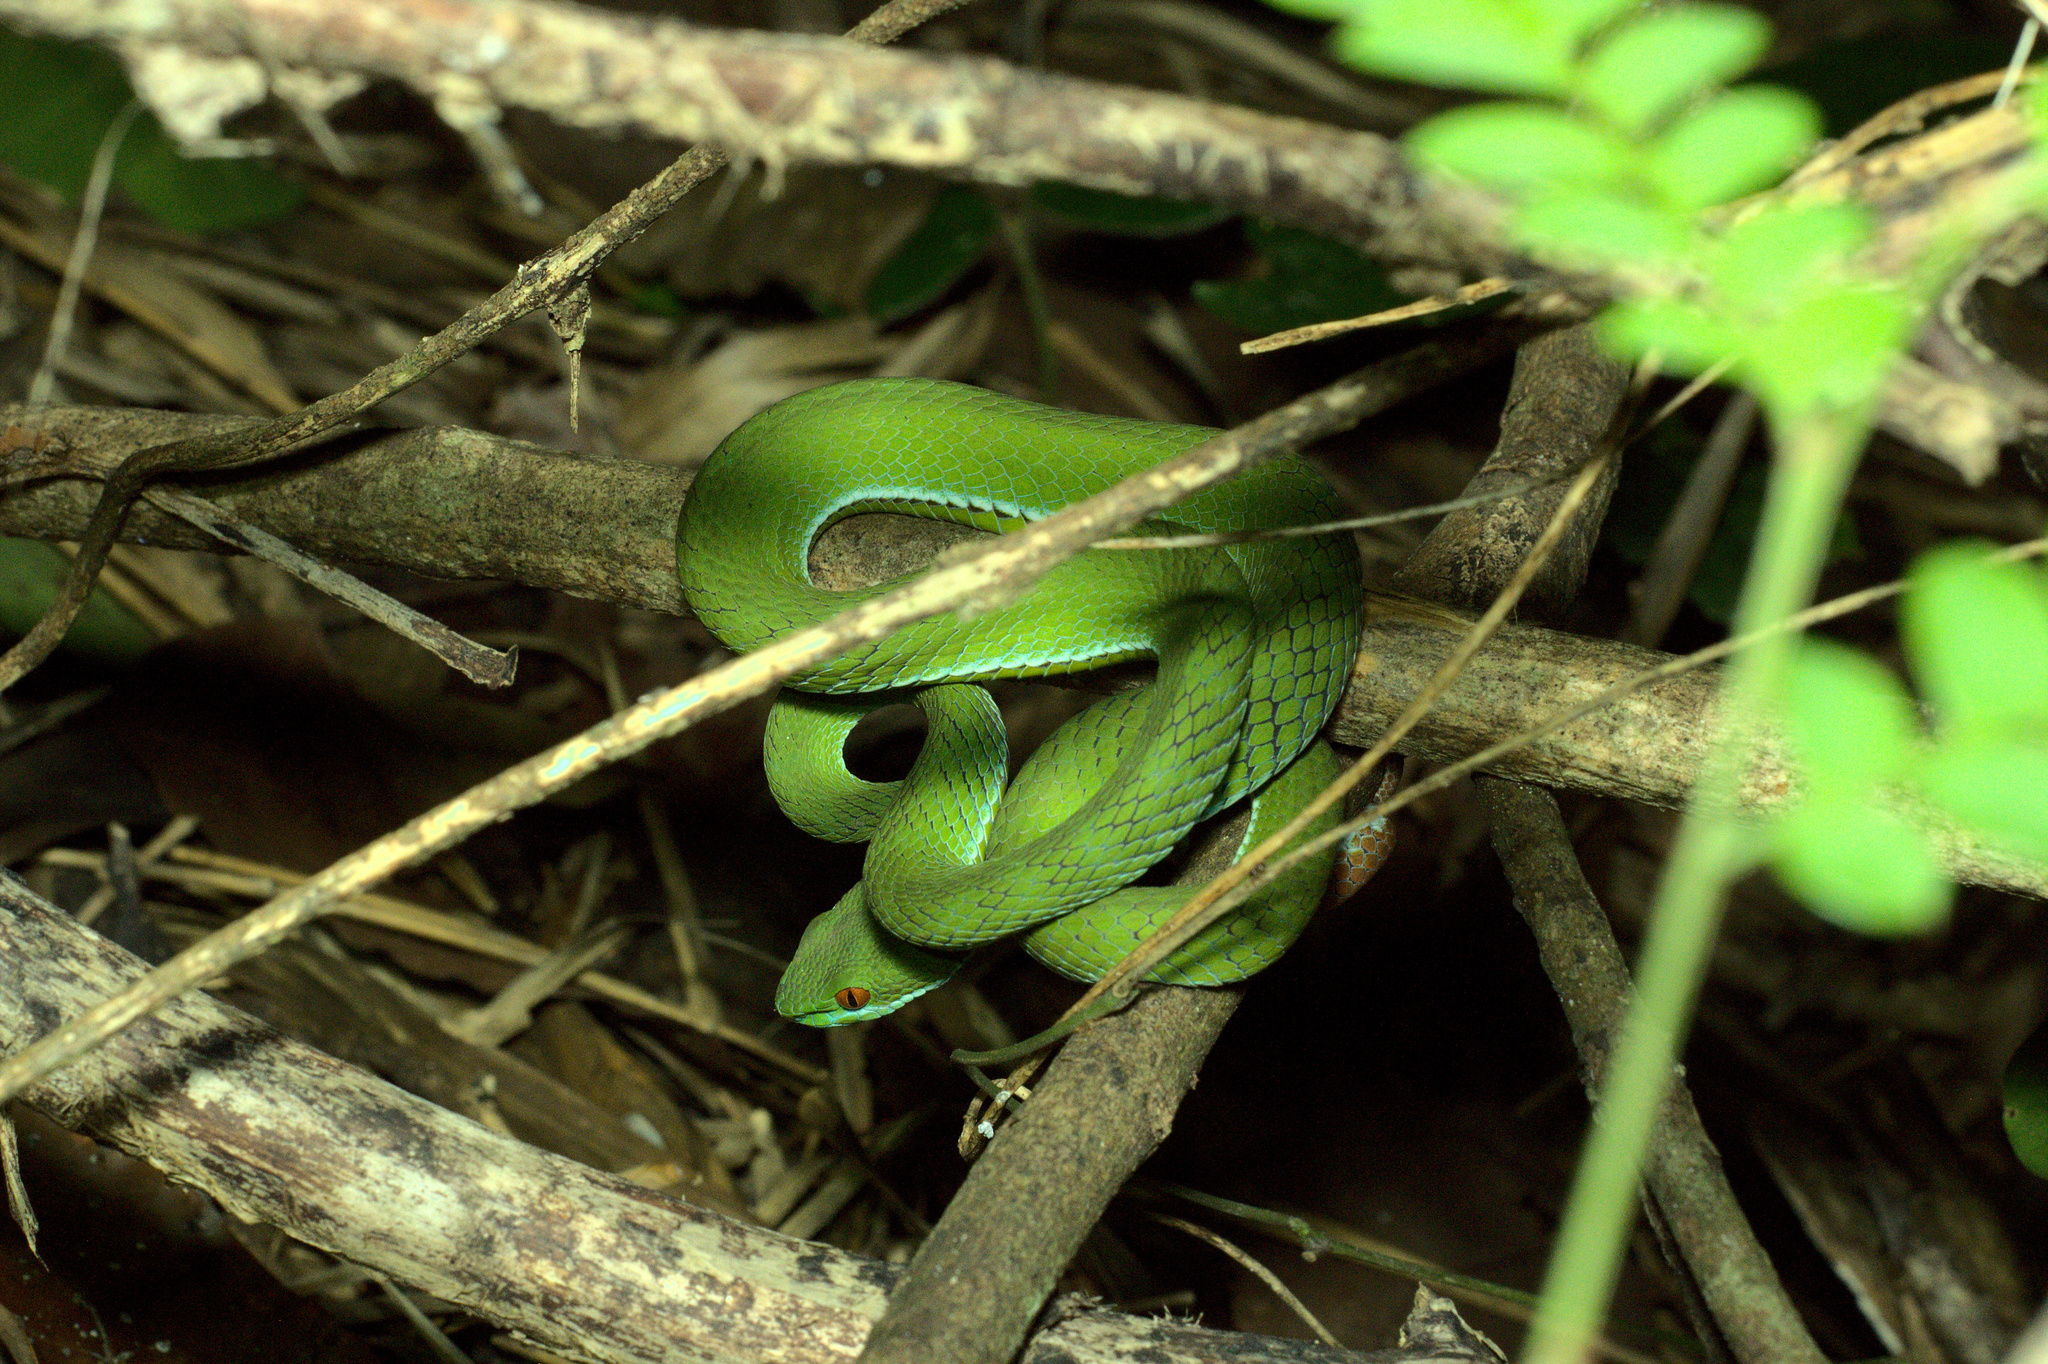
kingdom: Animalia
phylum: Chordata
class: Squamata
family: Viperidae
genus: Craspedocephalus
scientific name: Craspedocephalus rubeus
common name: Ruby-eyed green pitviper
